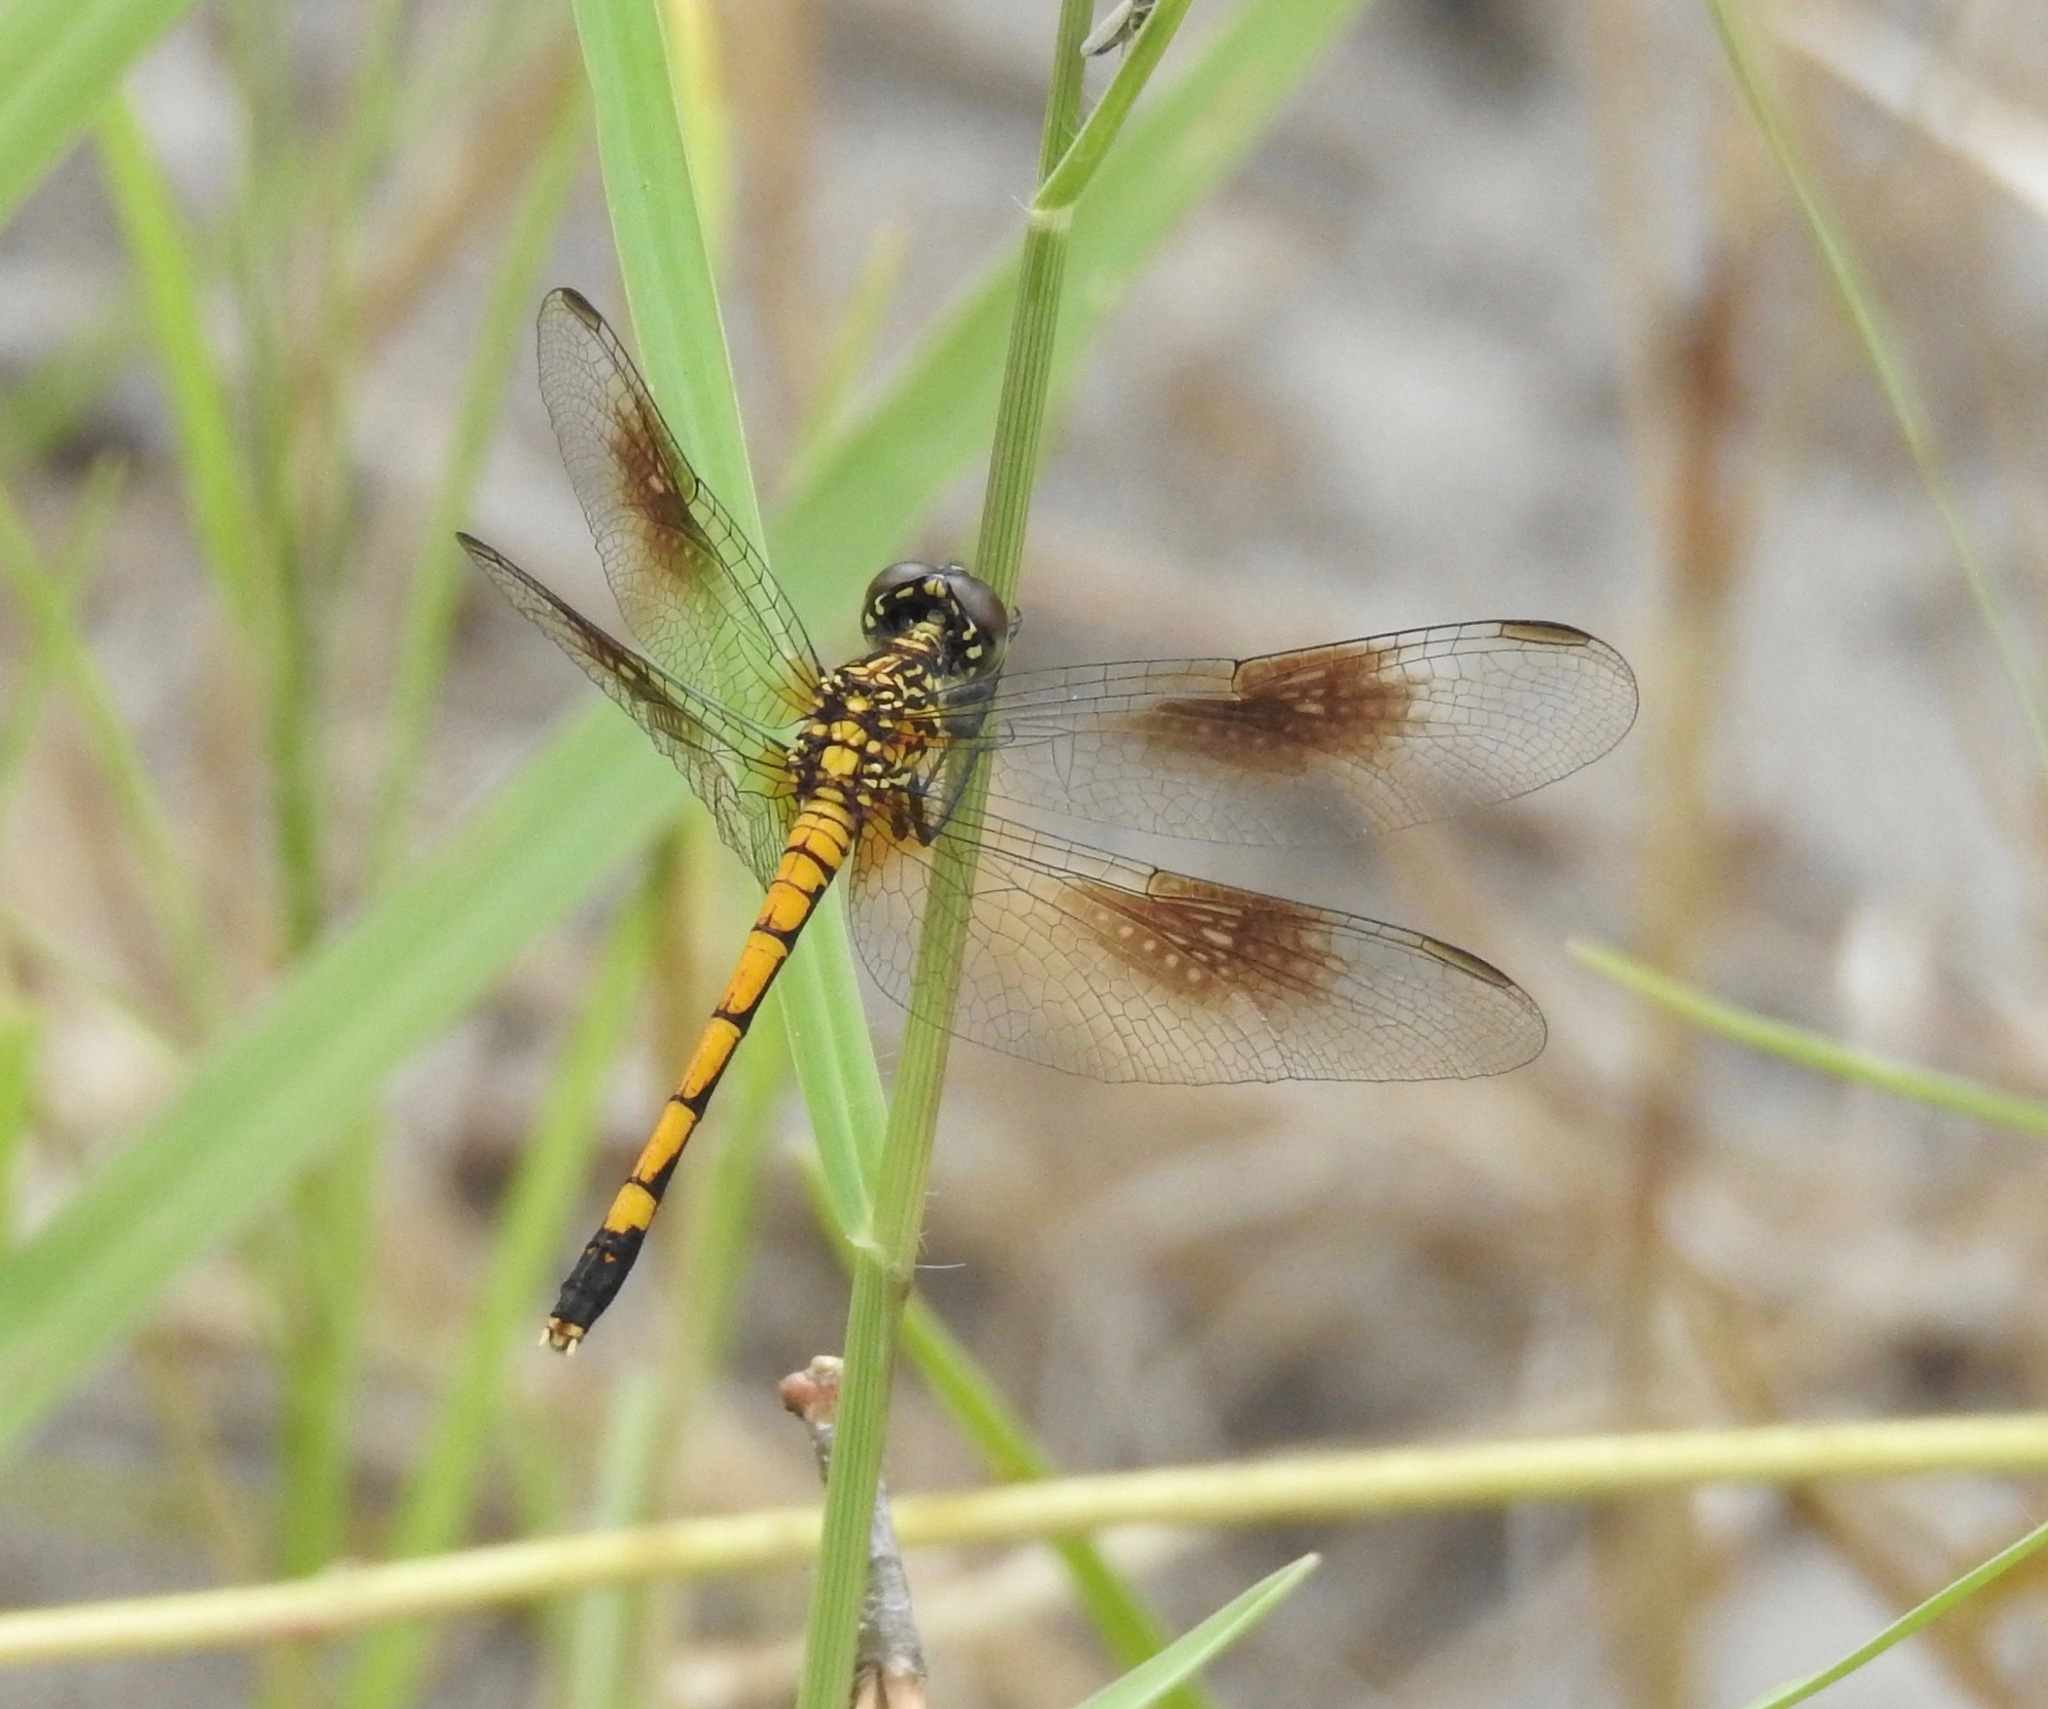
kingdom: Animalia
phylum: Arthropoda
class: Insecta
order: Odonata
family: Libellulidae
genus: Erythrodiplax
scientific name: Erythrodiplax berenice
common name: Seaside dragonlet
